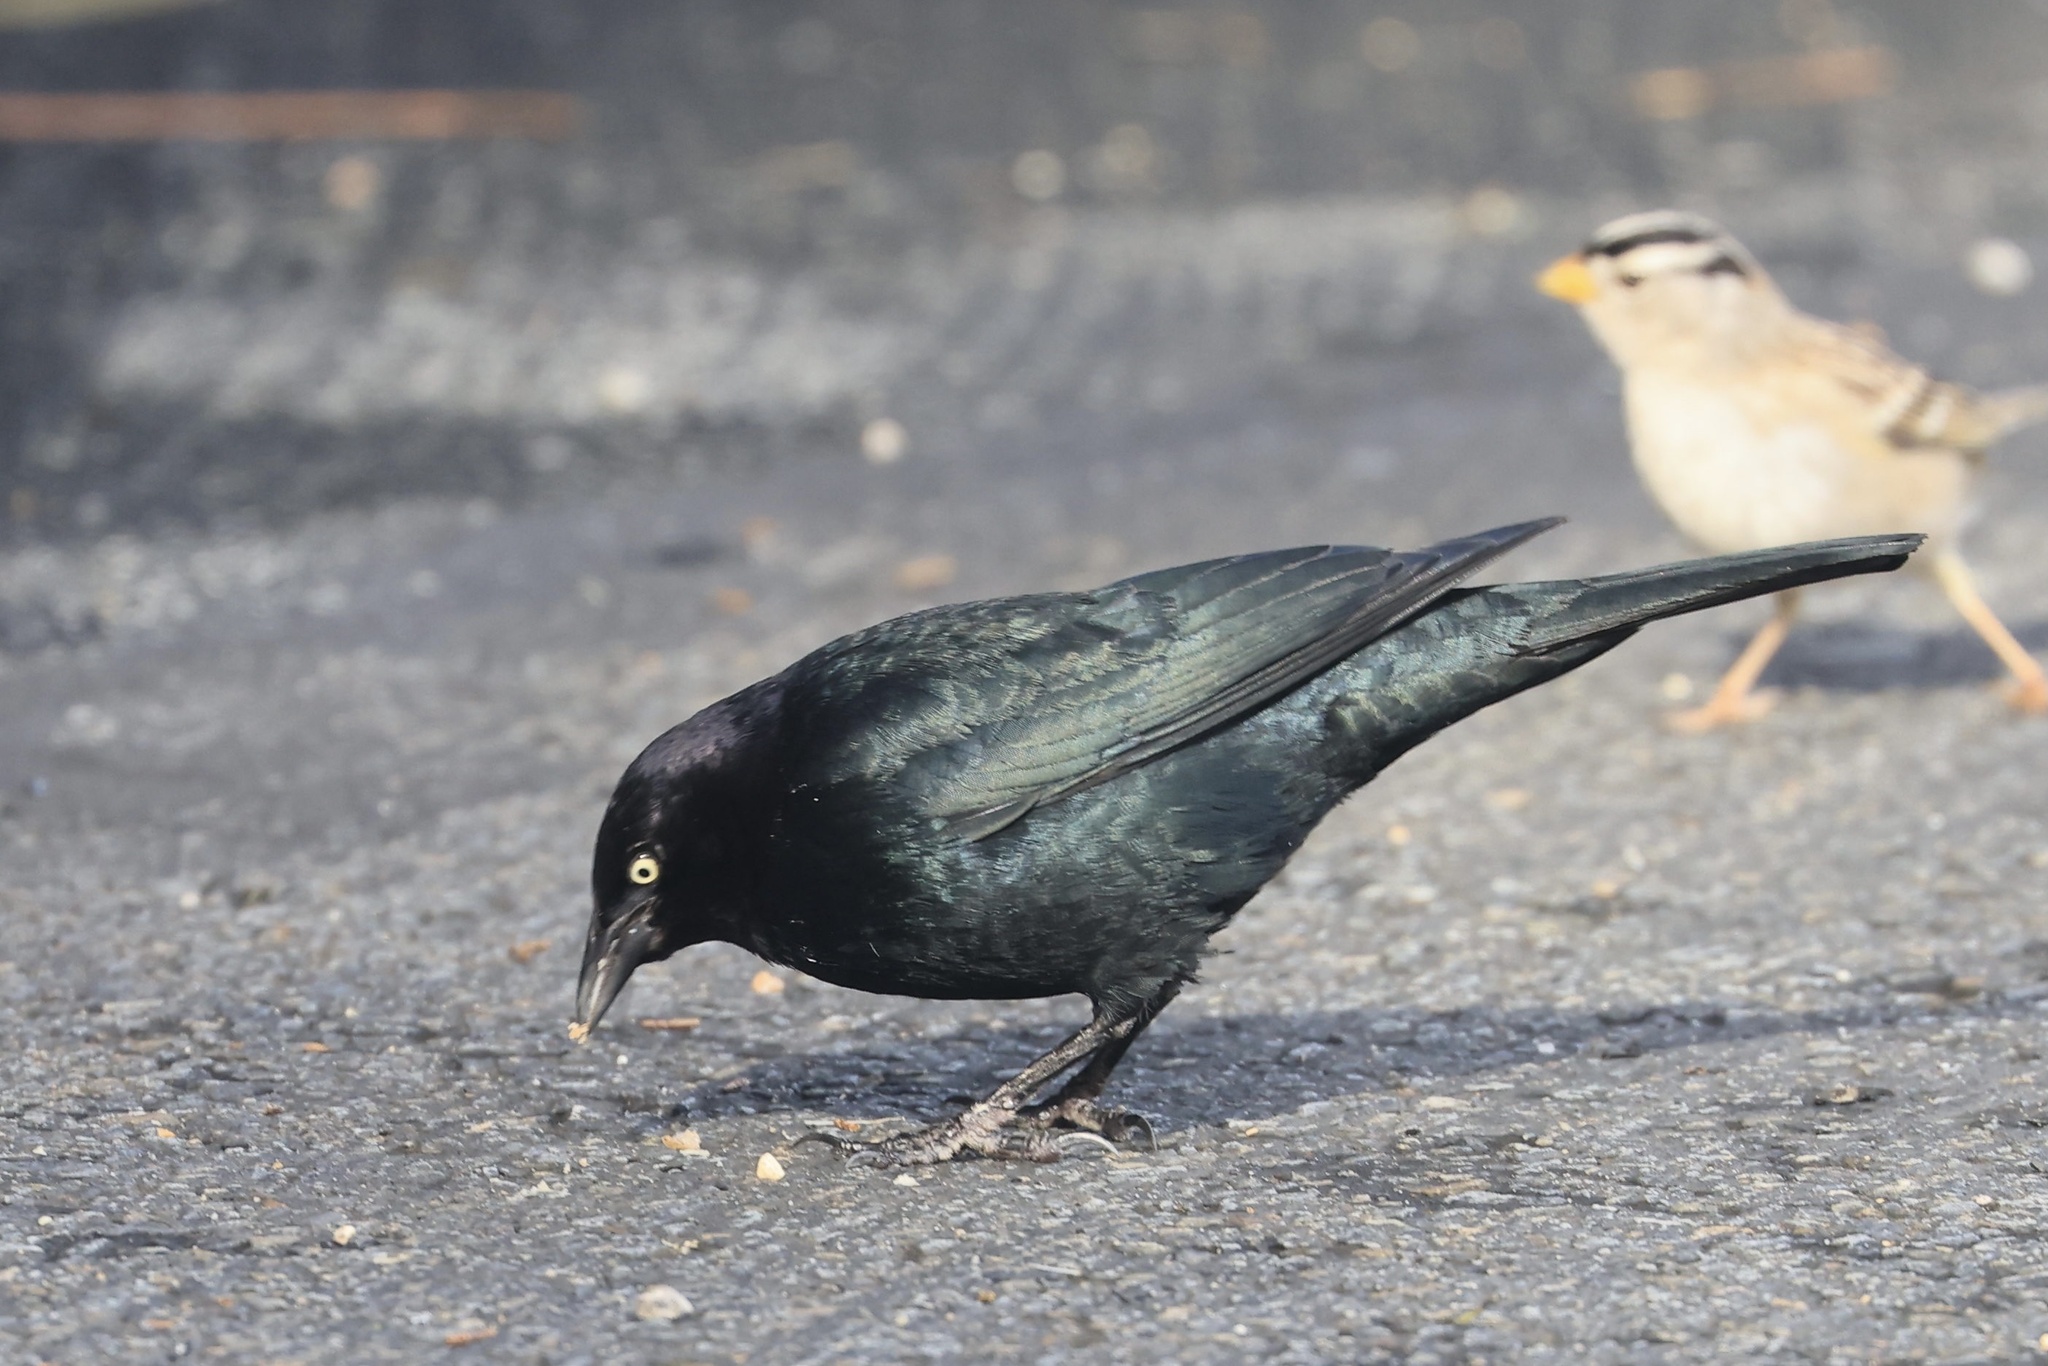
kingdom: Animalia
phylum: Chordata
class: Aves
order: Passeriformes
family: Icteridae
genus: Euphagus
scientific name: Euphagus cyanocephalus
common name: Brewer's blackbird
